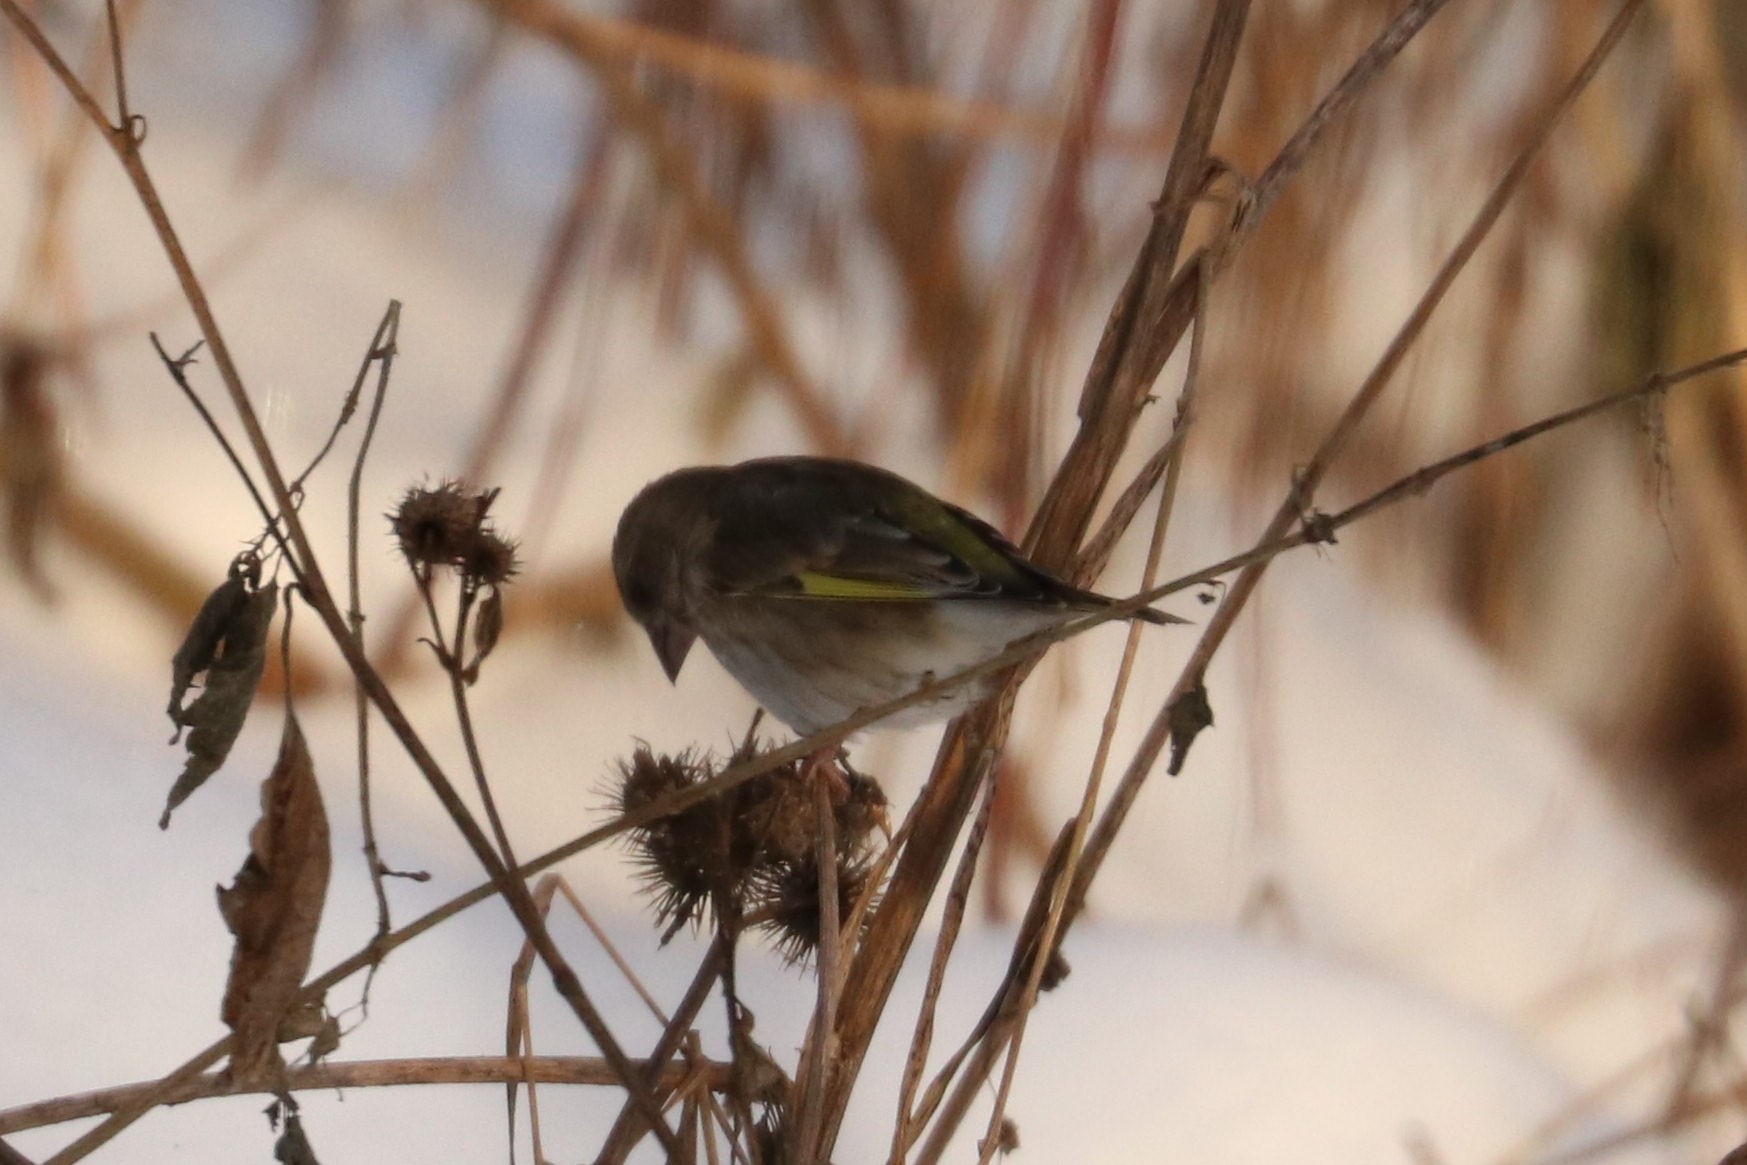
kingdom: Plantae
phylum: Tracheophyta
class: Liliopsida
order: Poales
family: Poaceae
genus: Chloris
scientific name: Chloris chloris
